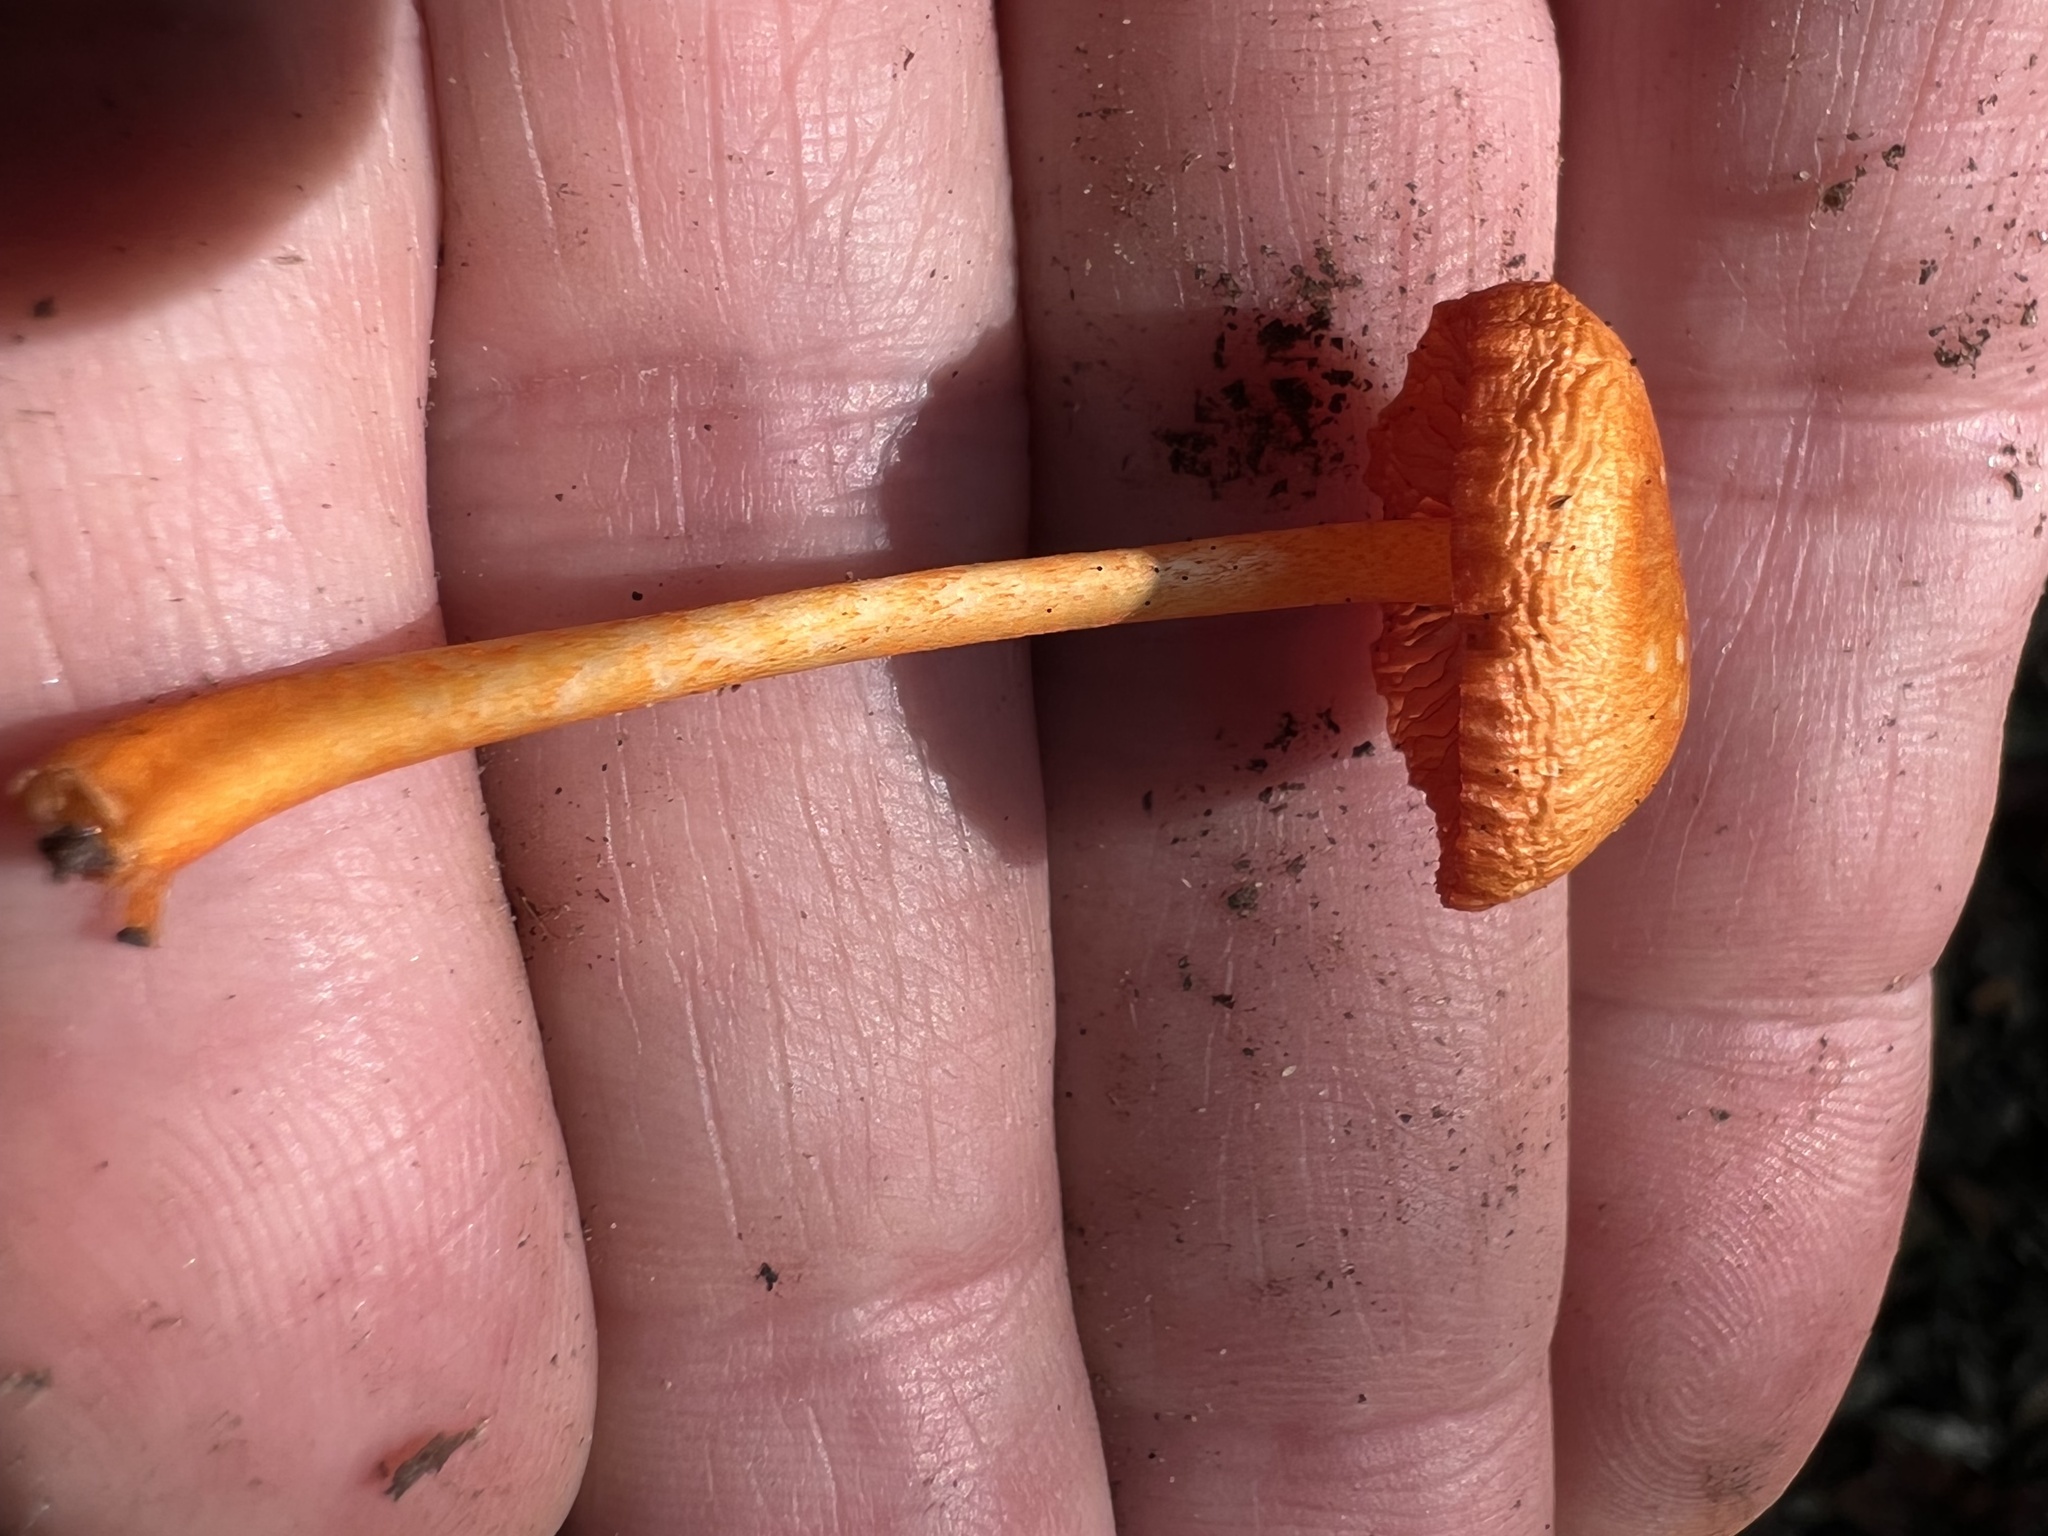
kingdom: Fungi
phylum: Basidiomycota
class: Agaricomycetes
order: Agaricales
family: Mycenaceae
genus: Mycena
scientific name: Mycena leaiana
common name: Orange mycena
